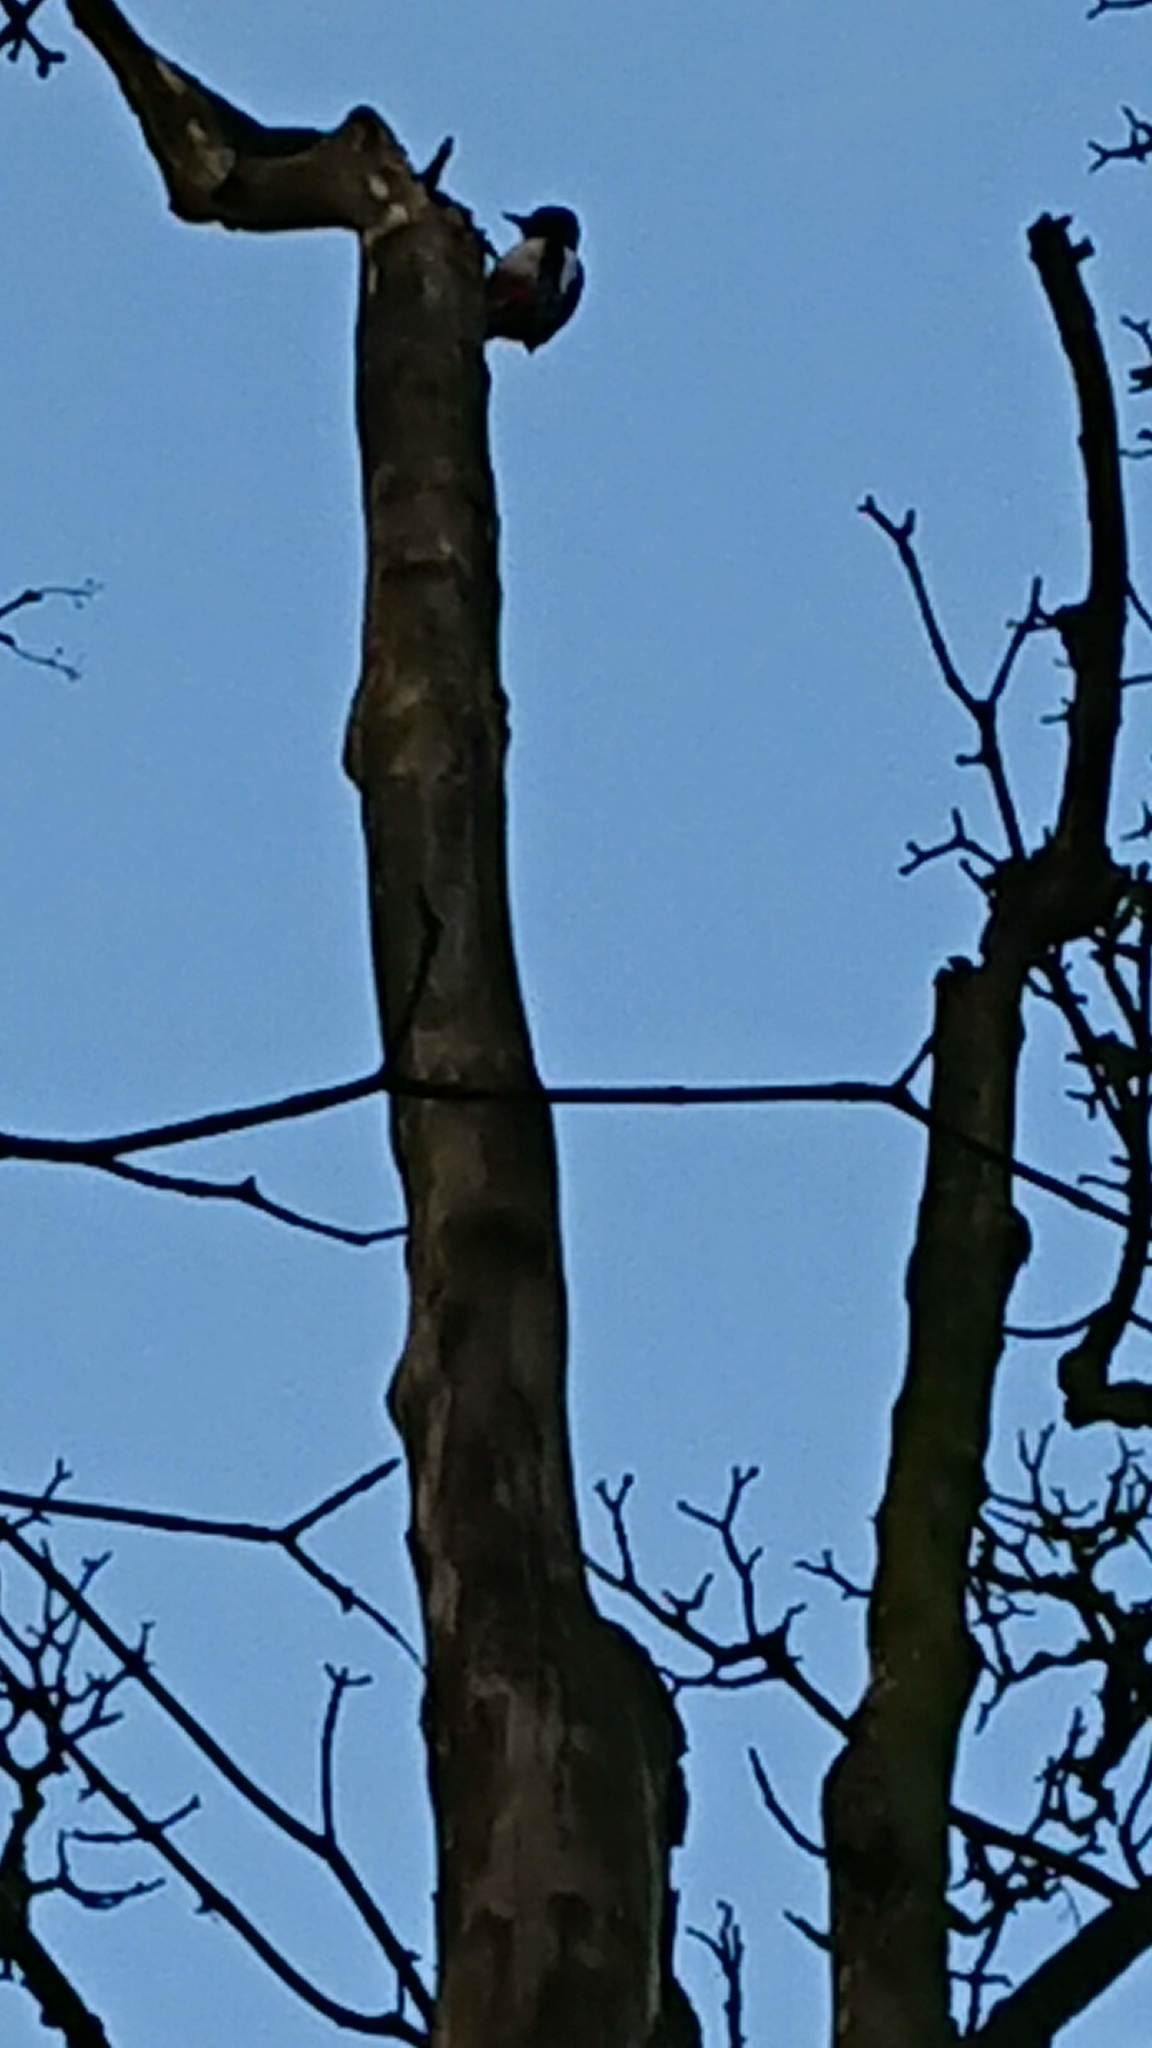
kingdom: Animalia
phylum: Chordata
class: Aves
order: Piciformes
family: Picidae
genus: Dendrocopos
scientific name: Dendrocopos major
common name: Great spotted woodpecker
